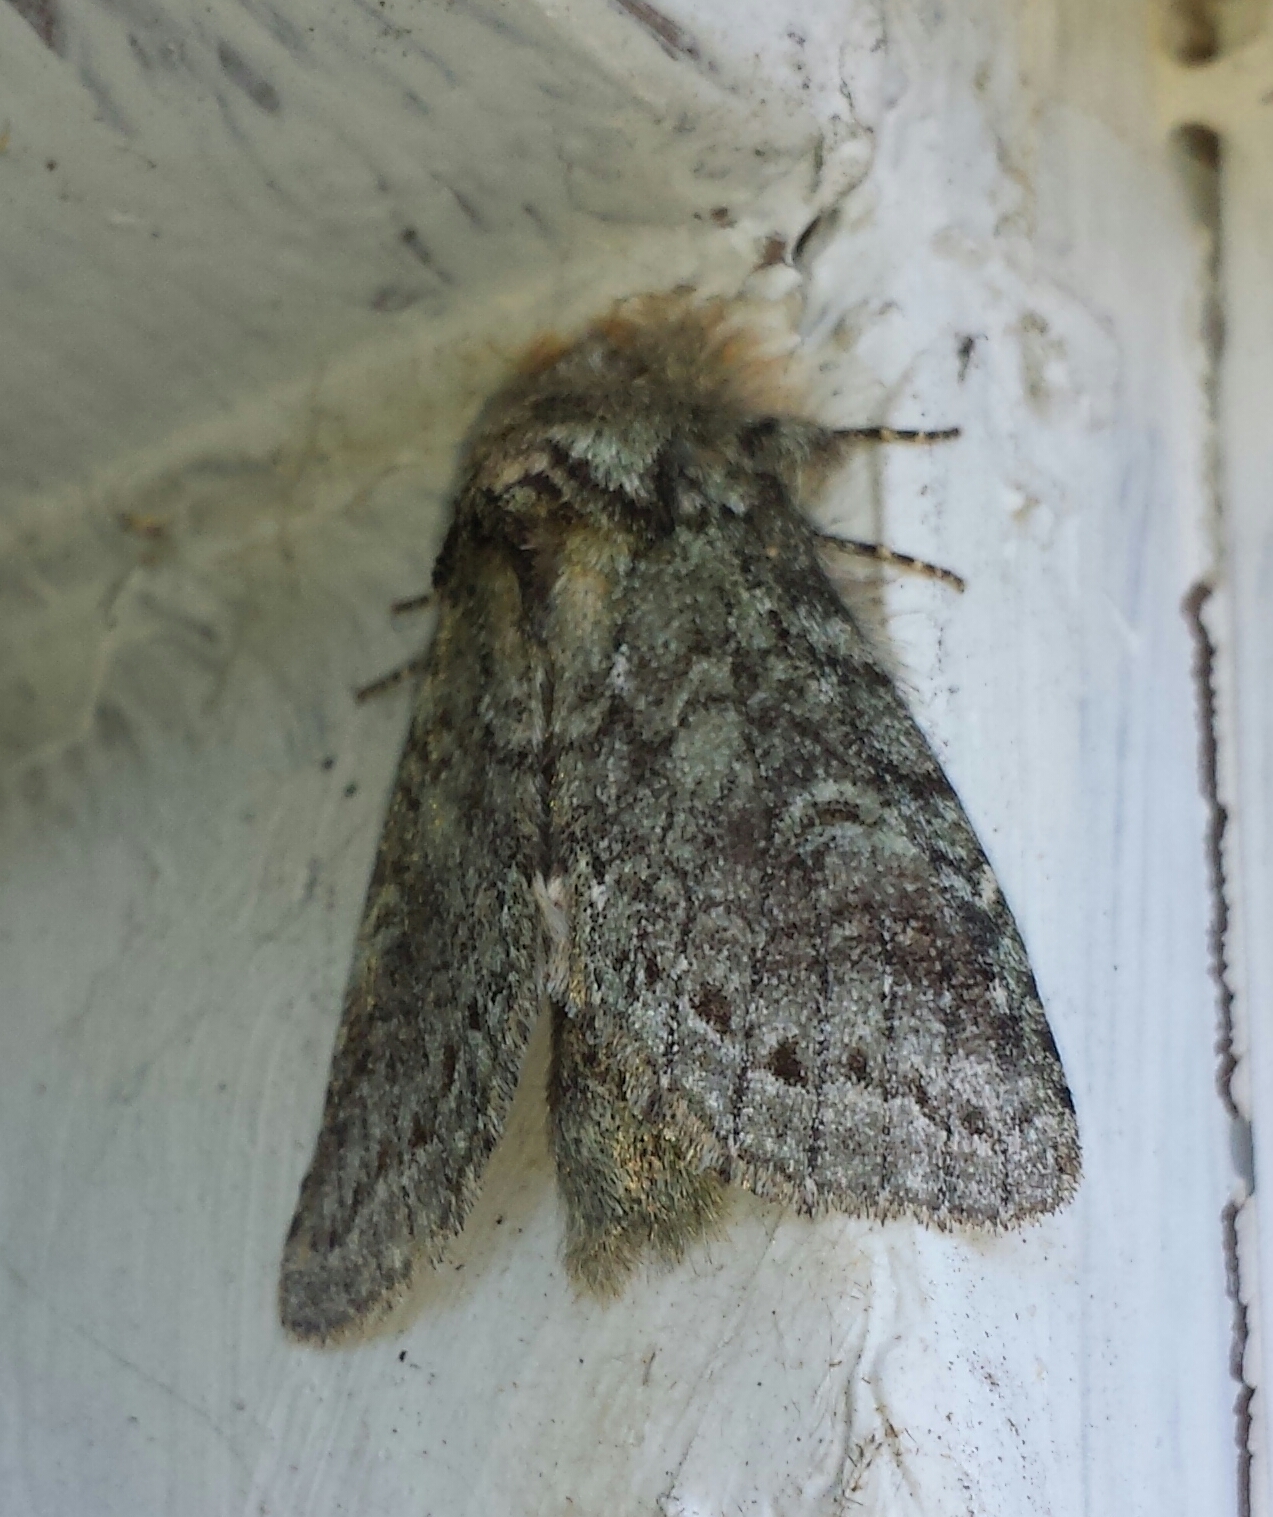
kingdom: Animalia
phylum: Arthropoda
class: Insecta
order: Lepidoptera
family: Notodontidae
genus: Disphragis
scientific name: Disphragis Cecrita guttivitta
